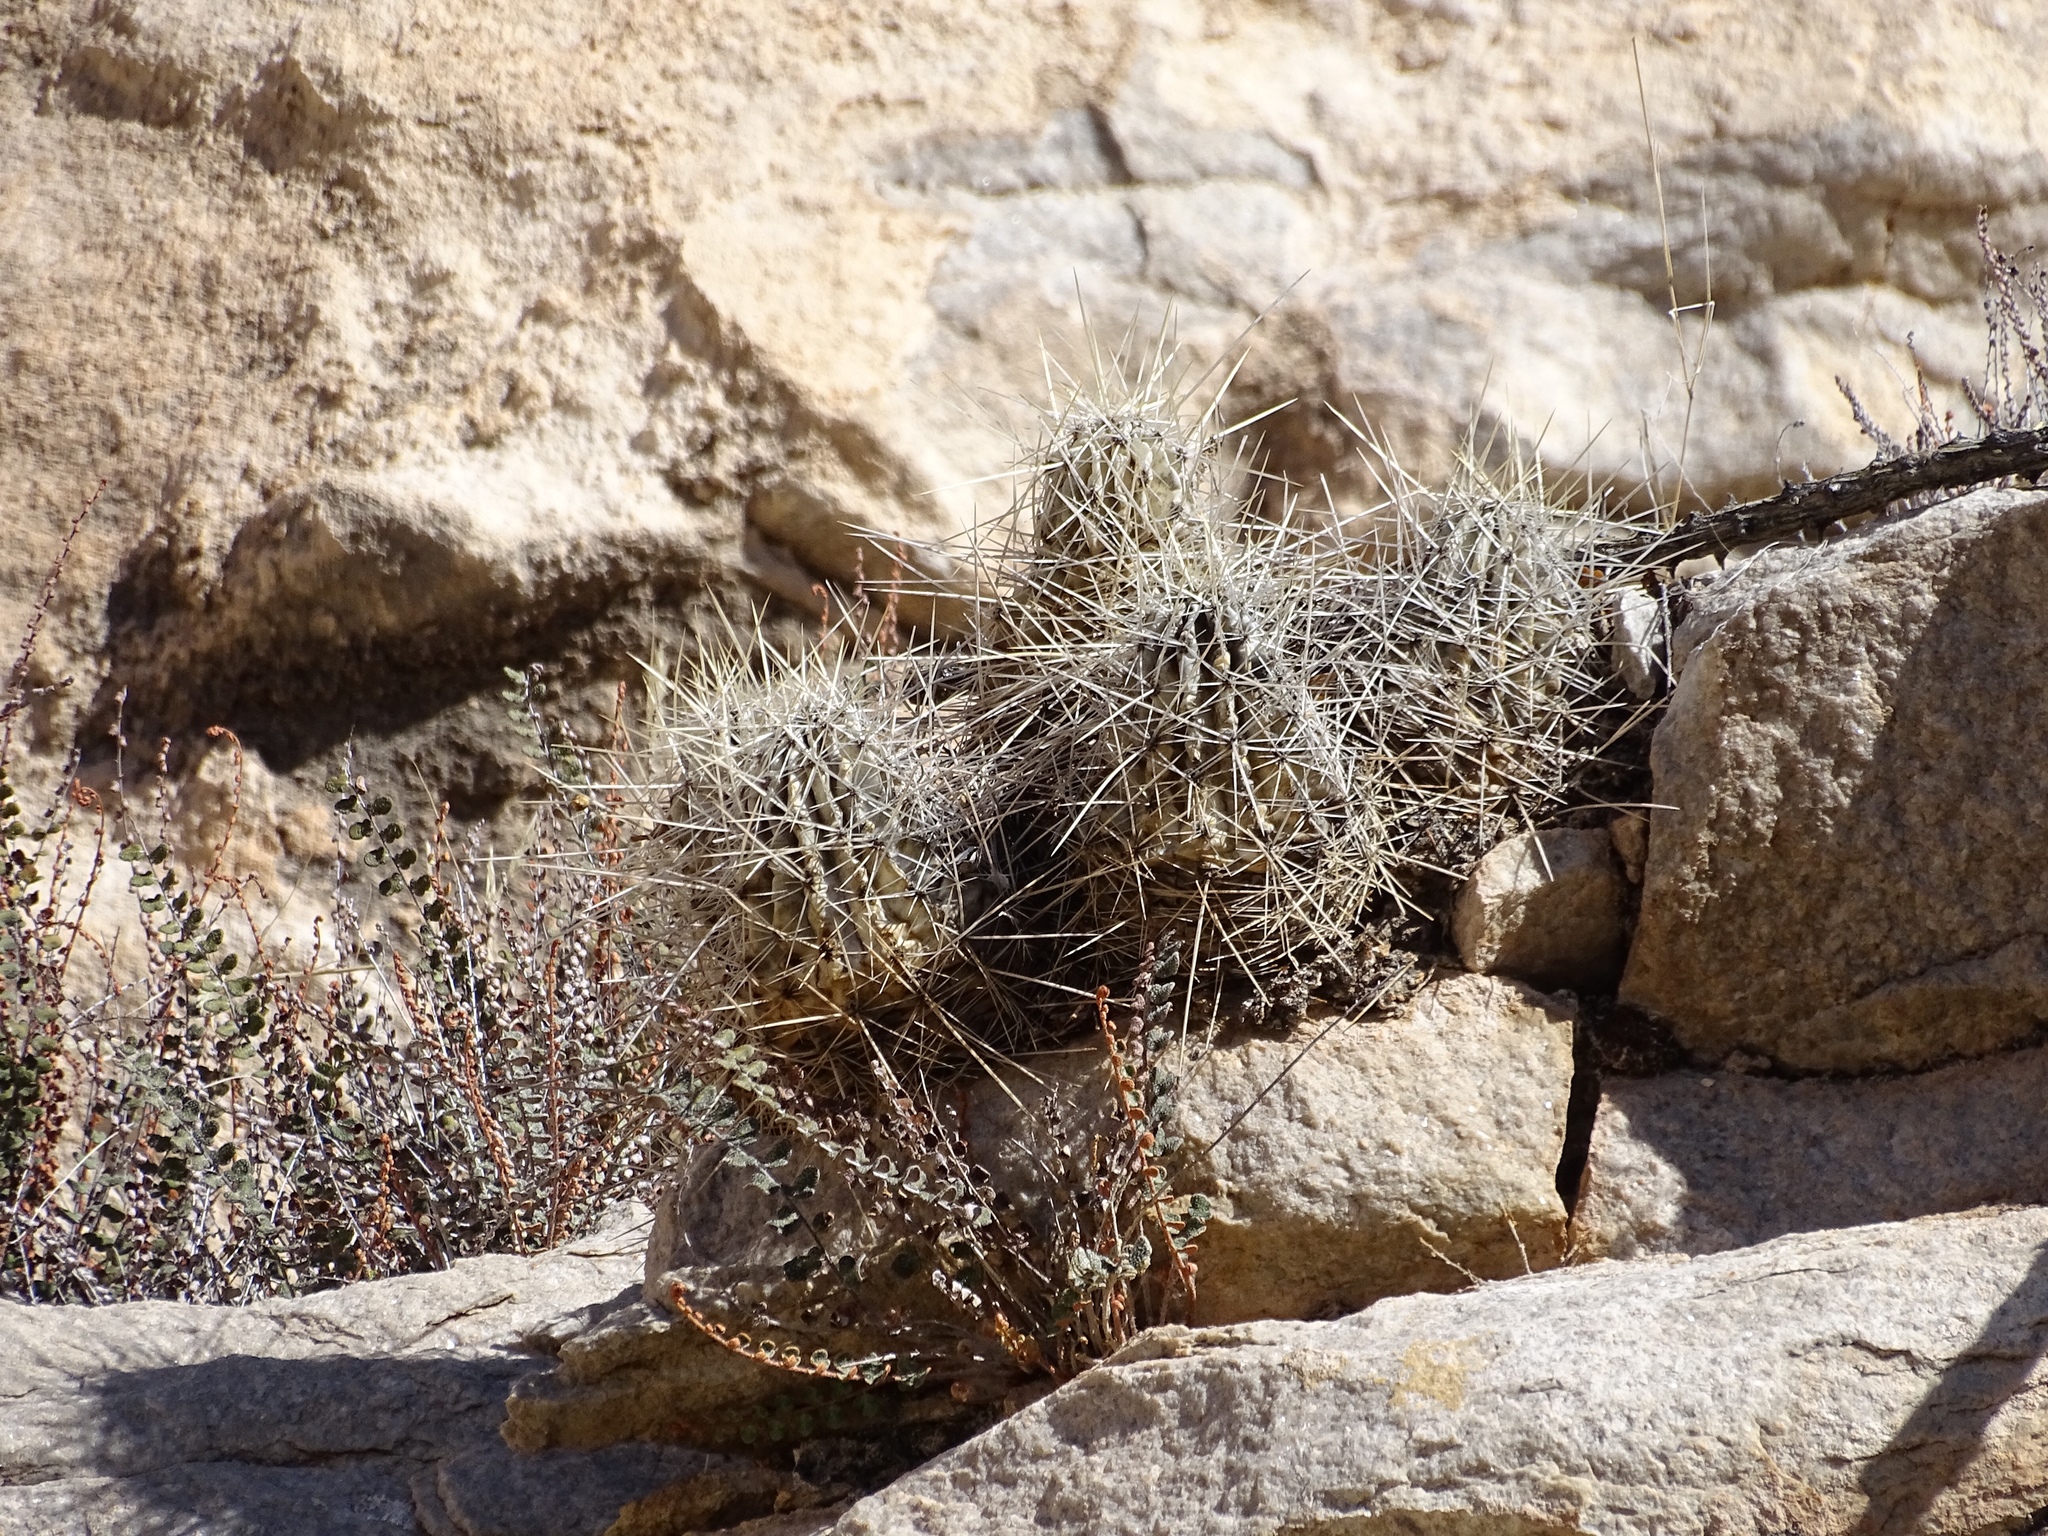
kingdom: Plantae
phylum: Tracheophyta
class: Magnoliopsida
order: Caryophyllales
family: Cactaceae
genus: Echinocereus
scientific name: Echinocereus stramineus
